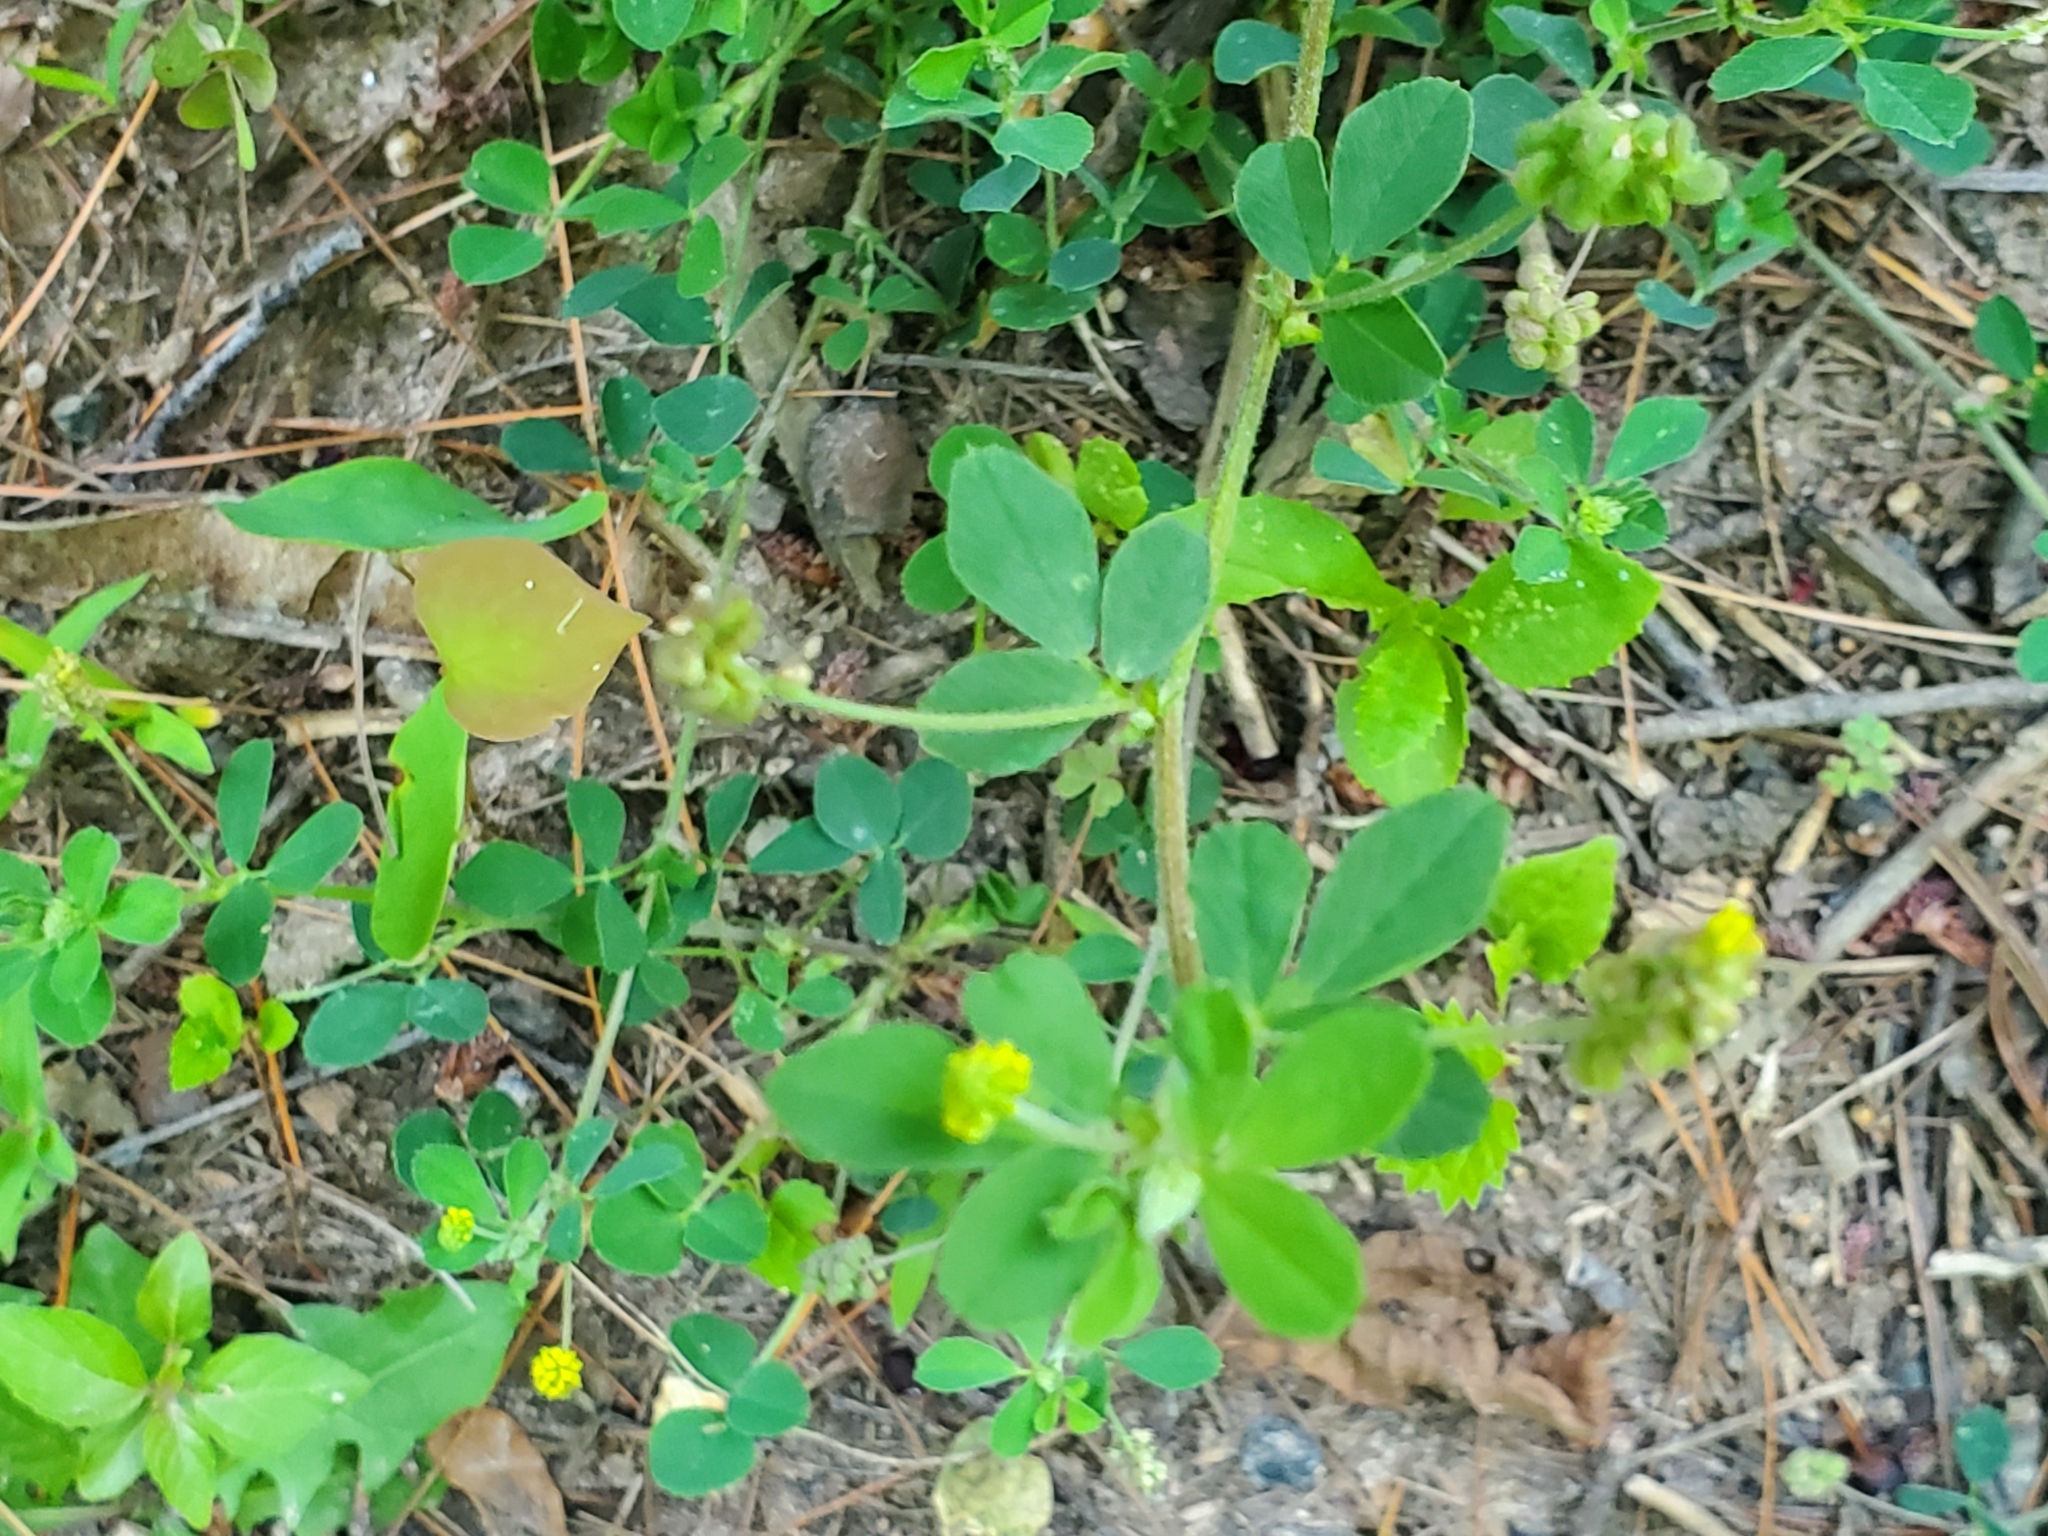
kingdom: Plantae
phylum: Tracheophyta
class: Magnoliopsida
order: Fabales
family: Fabaceae
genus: Medicago
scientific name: Medicago lupulina
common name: Black medick
